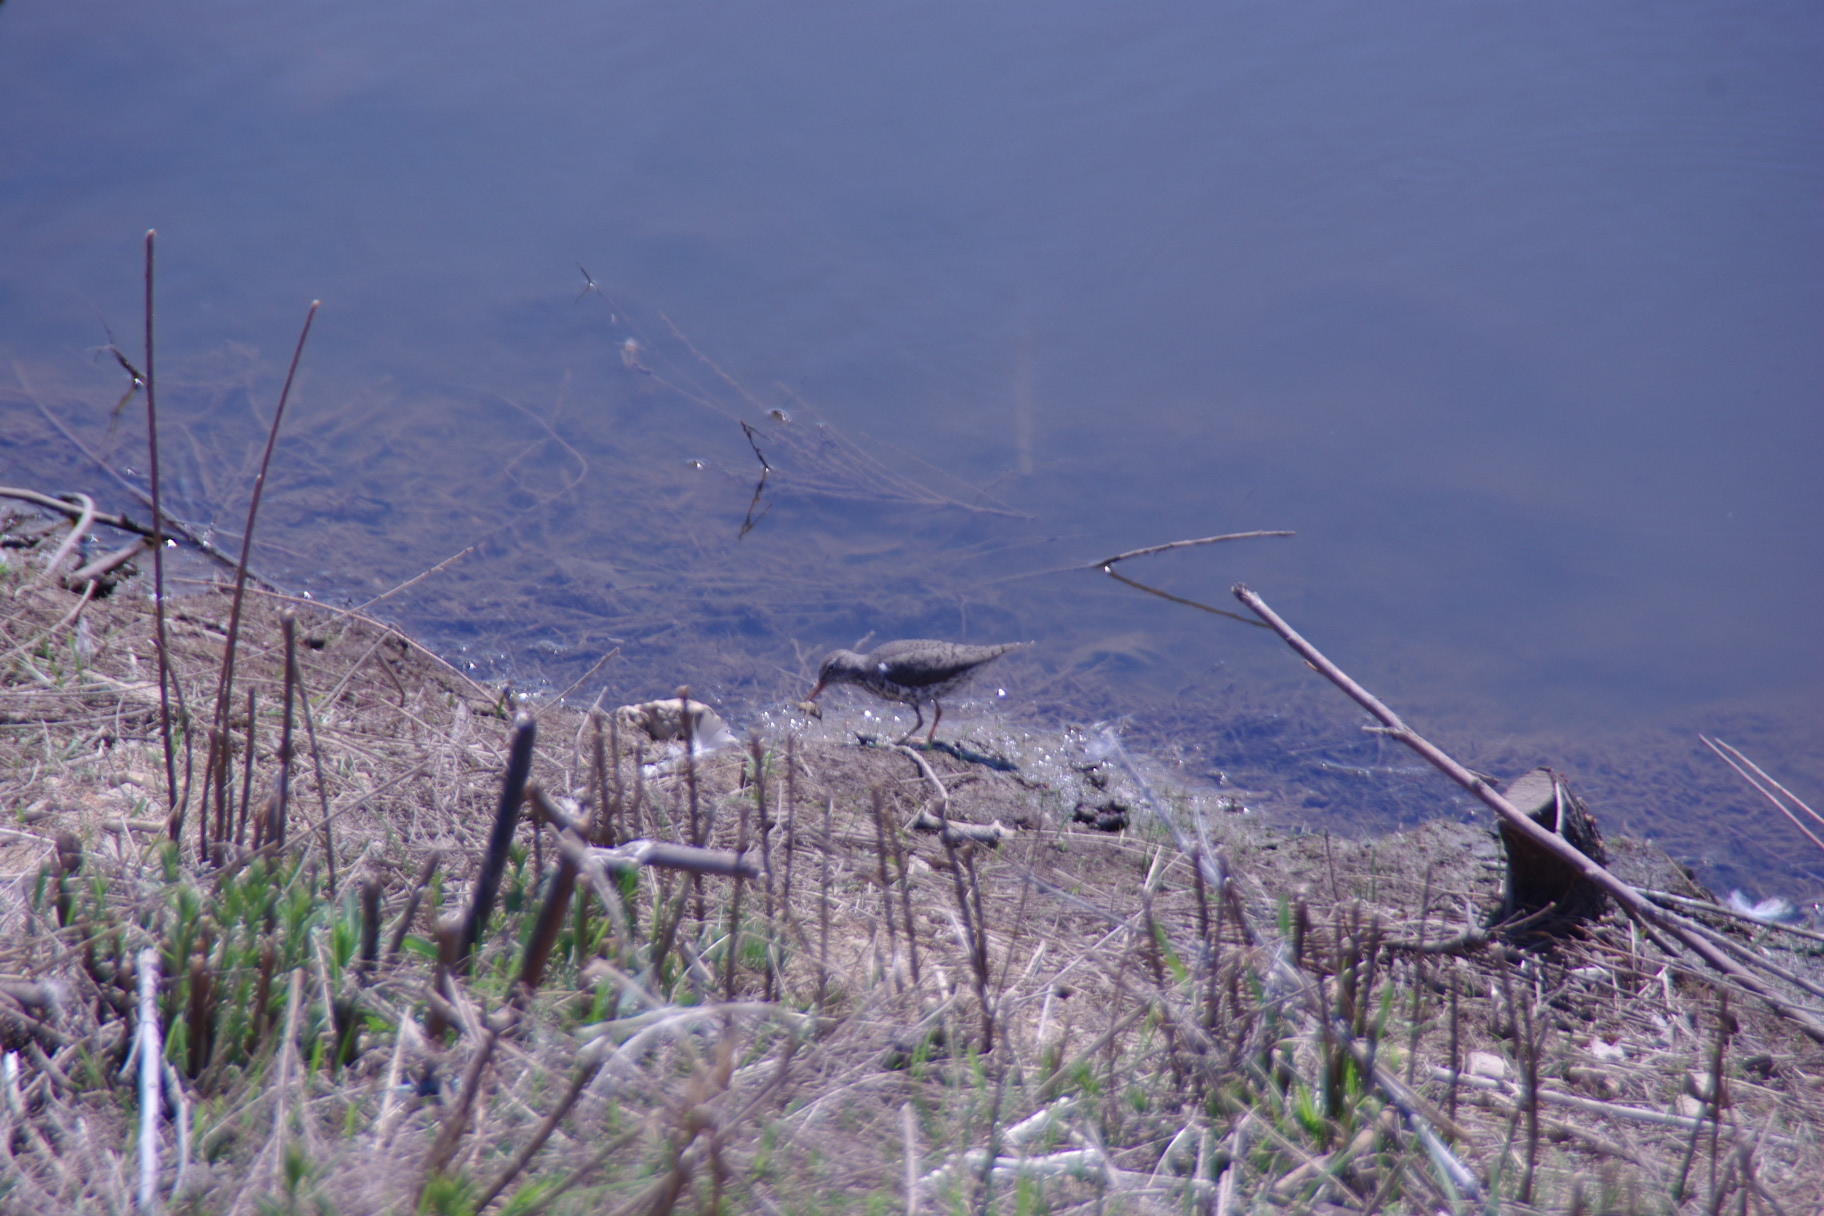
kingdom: Animalia
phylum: Chordata
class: Aves
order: Charadriiformes
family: Scolopacidae
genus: Actitis
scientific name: Actitis macularius
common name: Spotted sandpiper
